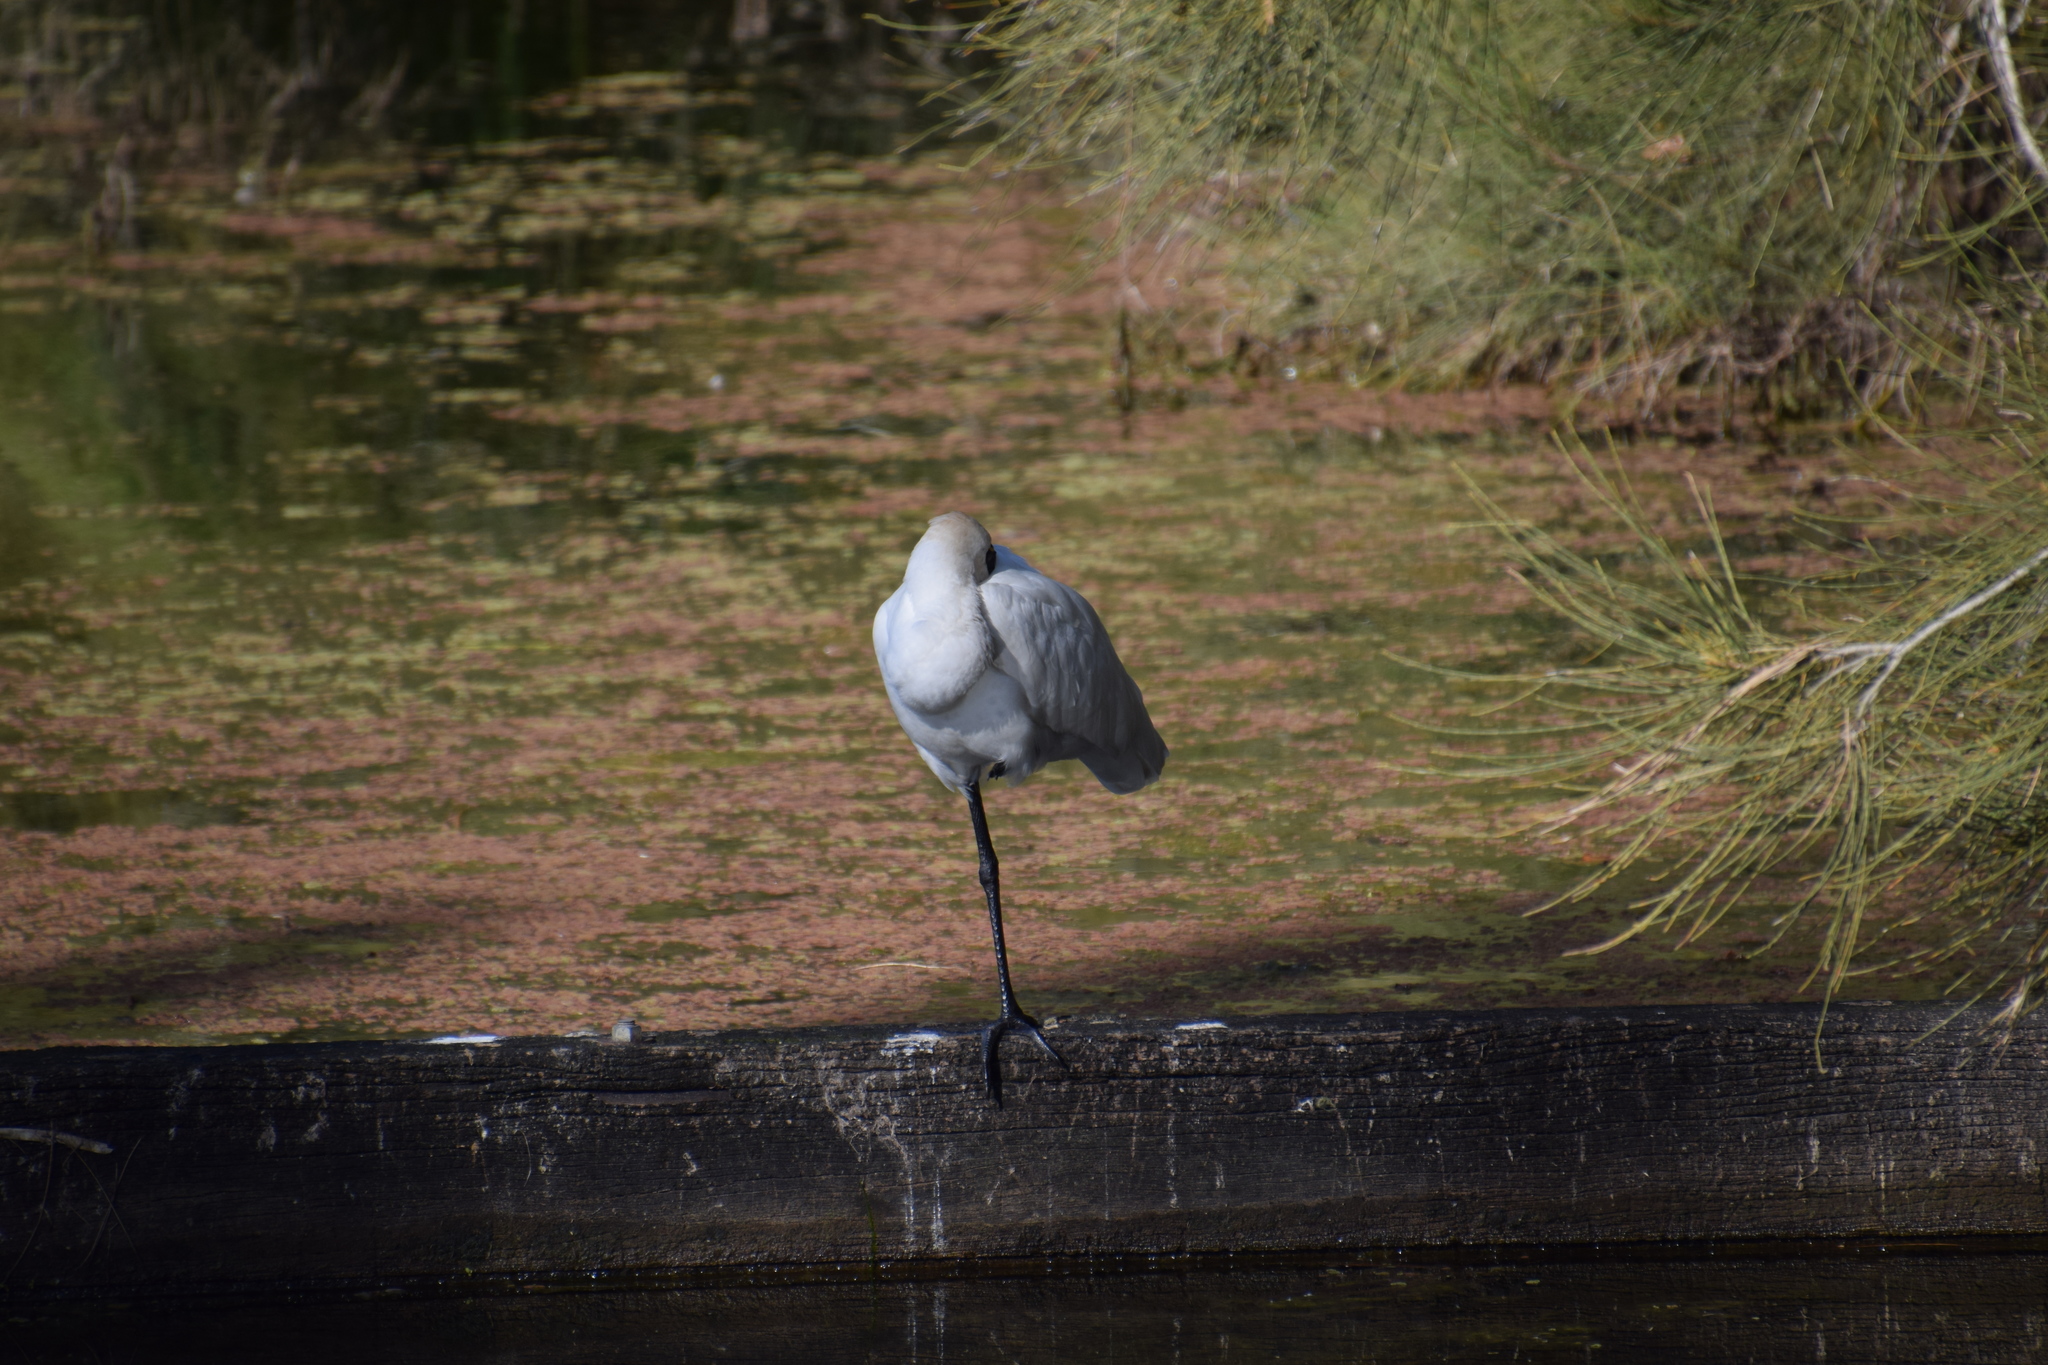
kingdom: Animalia
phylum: Chordata
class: Aves
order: Pelecaniformes
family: Threskiornithidae
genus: Platalea
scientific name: Platalea regia
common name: Royal spoonbill
